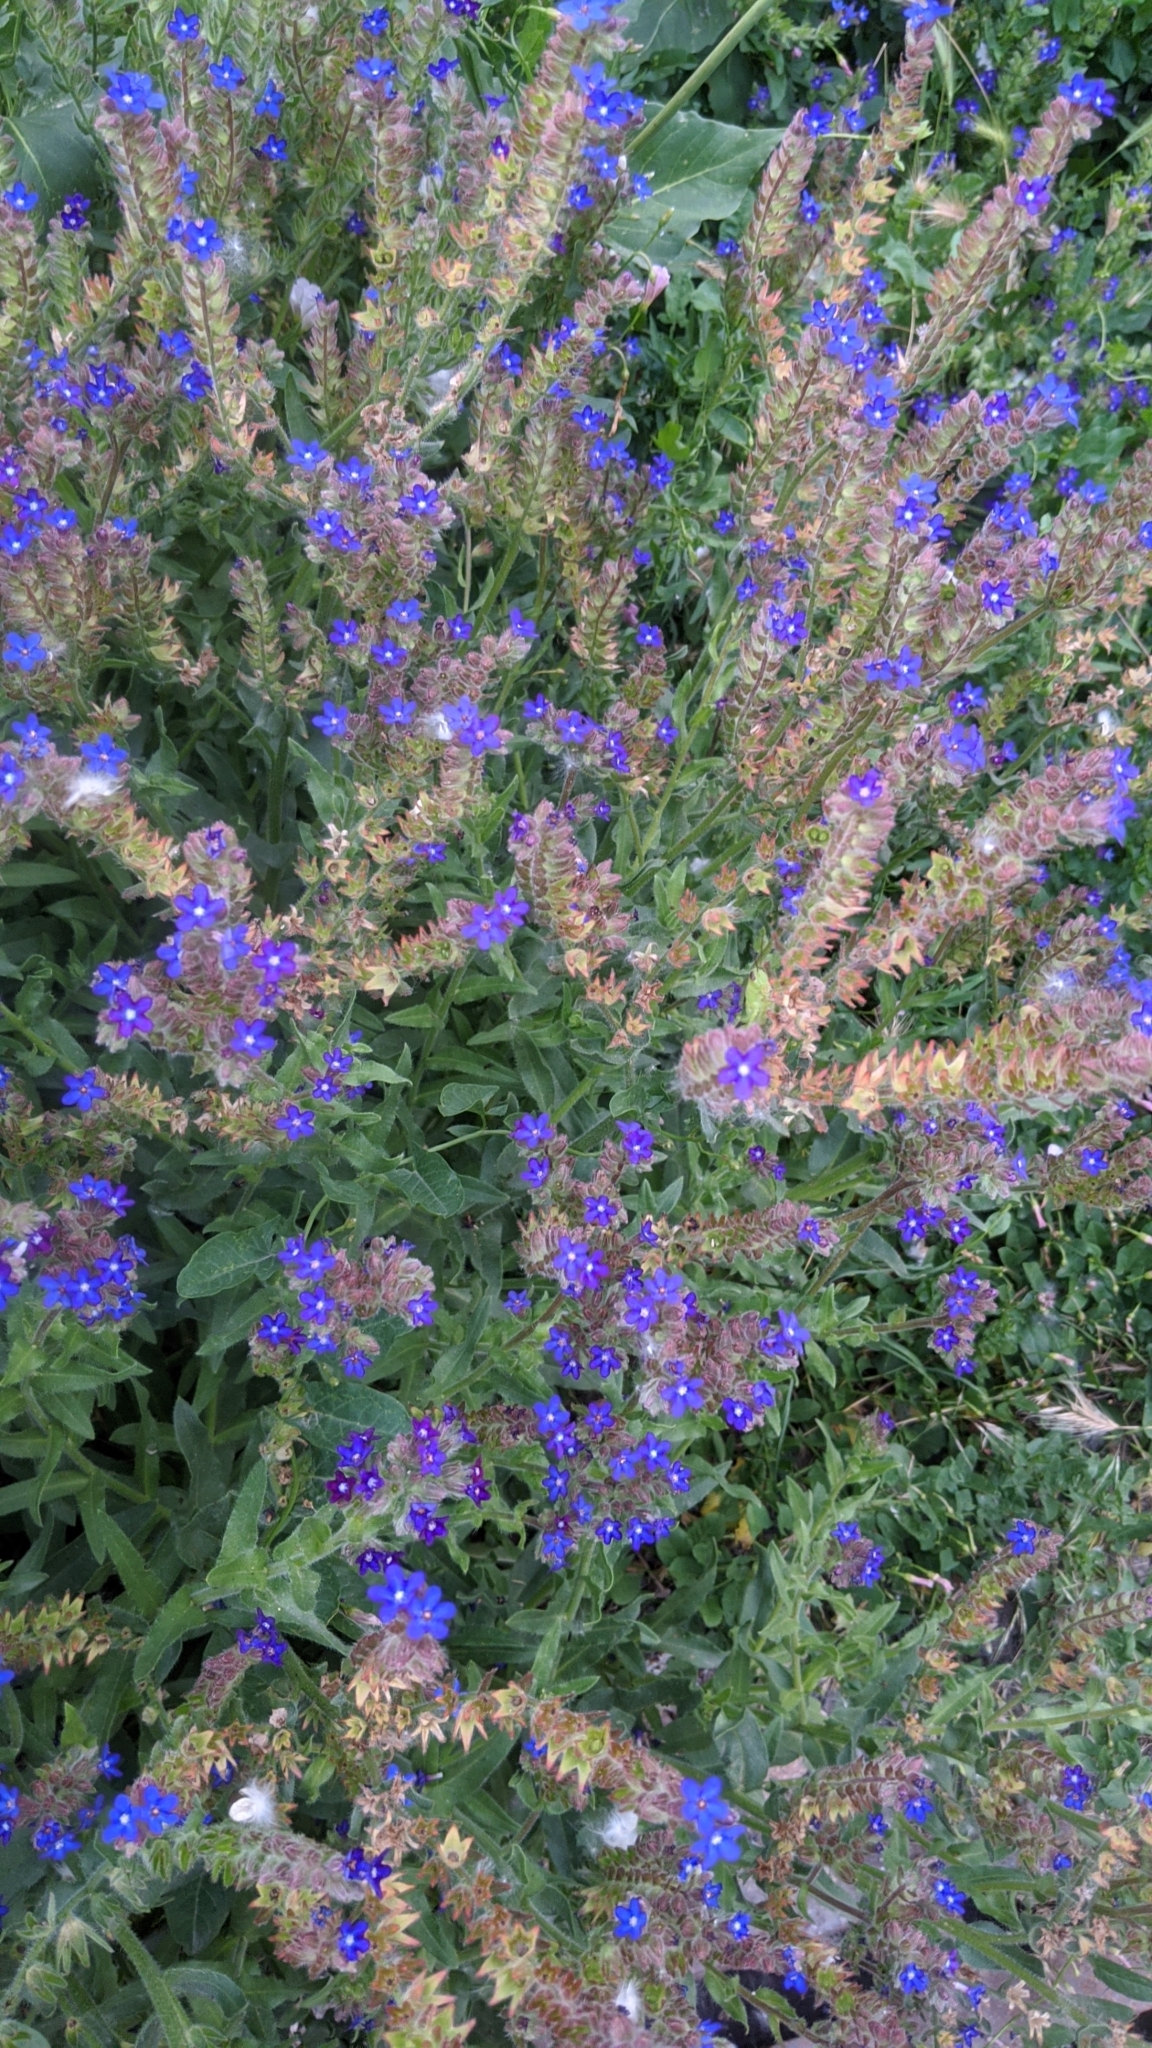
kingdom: Plantae
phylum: Tracheophyta
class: Magnoliopsida
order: Boraginales
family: Boraginaceae
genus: Anchusa
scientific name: Anchusa officinalis
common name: Alkanet
